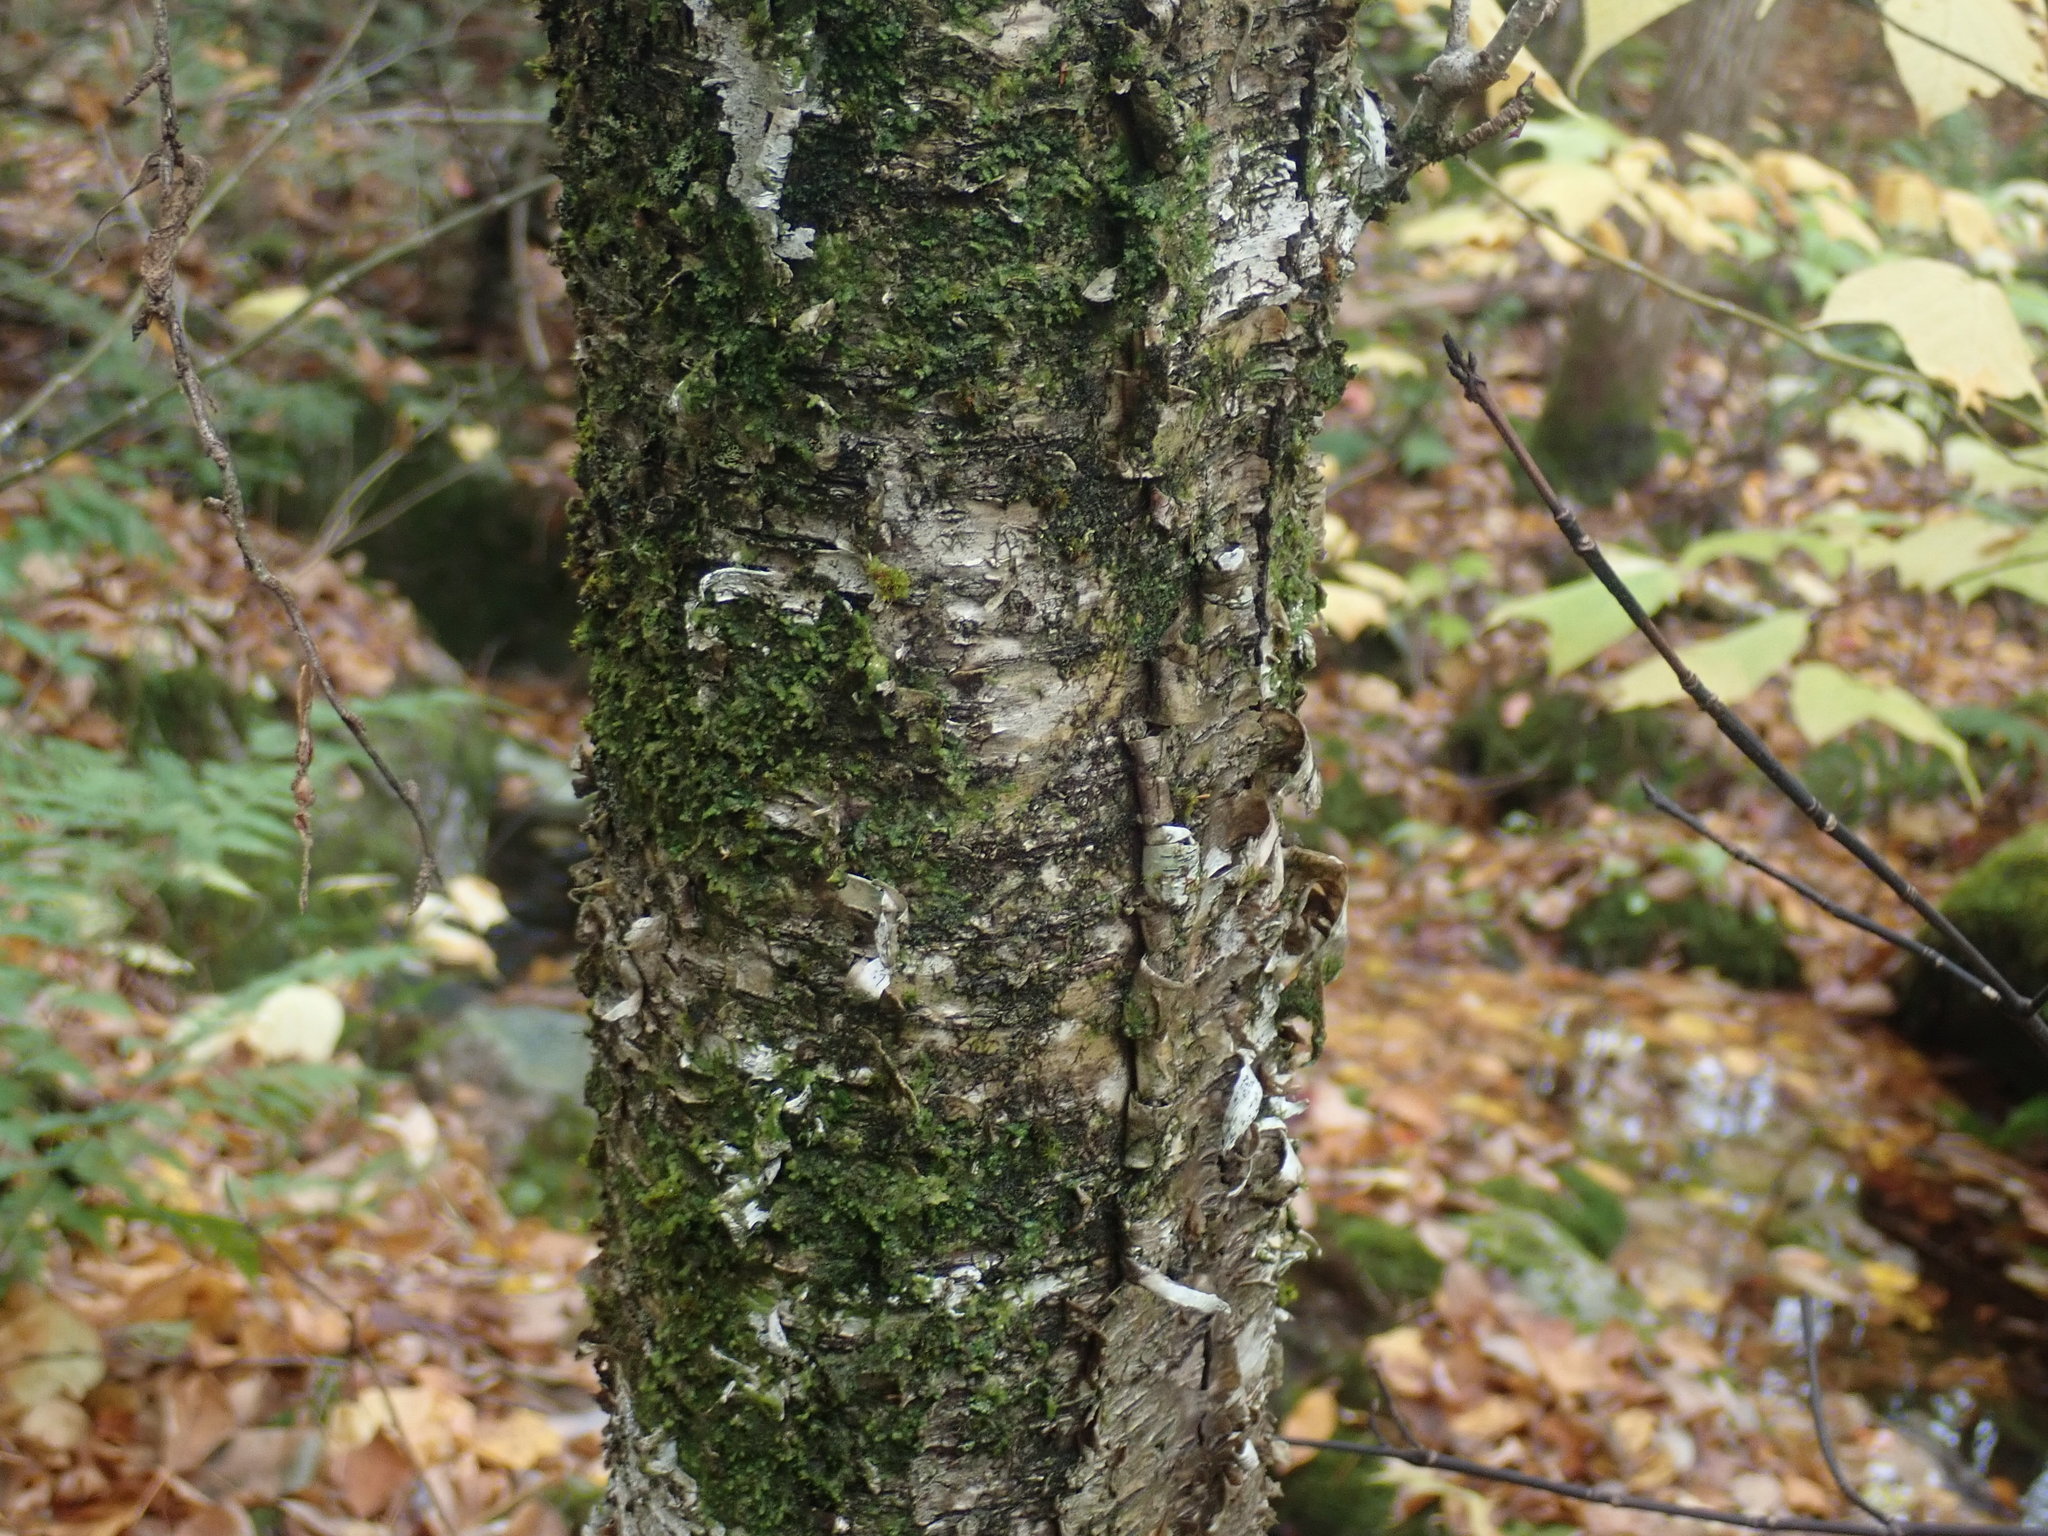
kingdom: Plantae
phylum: Tracheophyta
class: Magnoliopsida
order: Fagales
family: Betulaceae
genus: Betula
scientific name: Betula alleghaniensis
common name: Yellow birch
